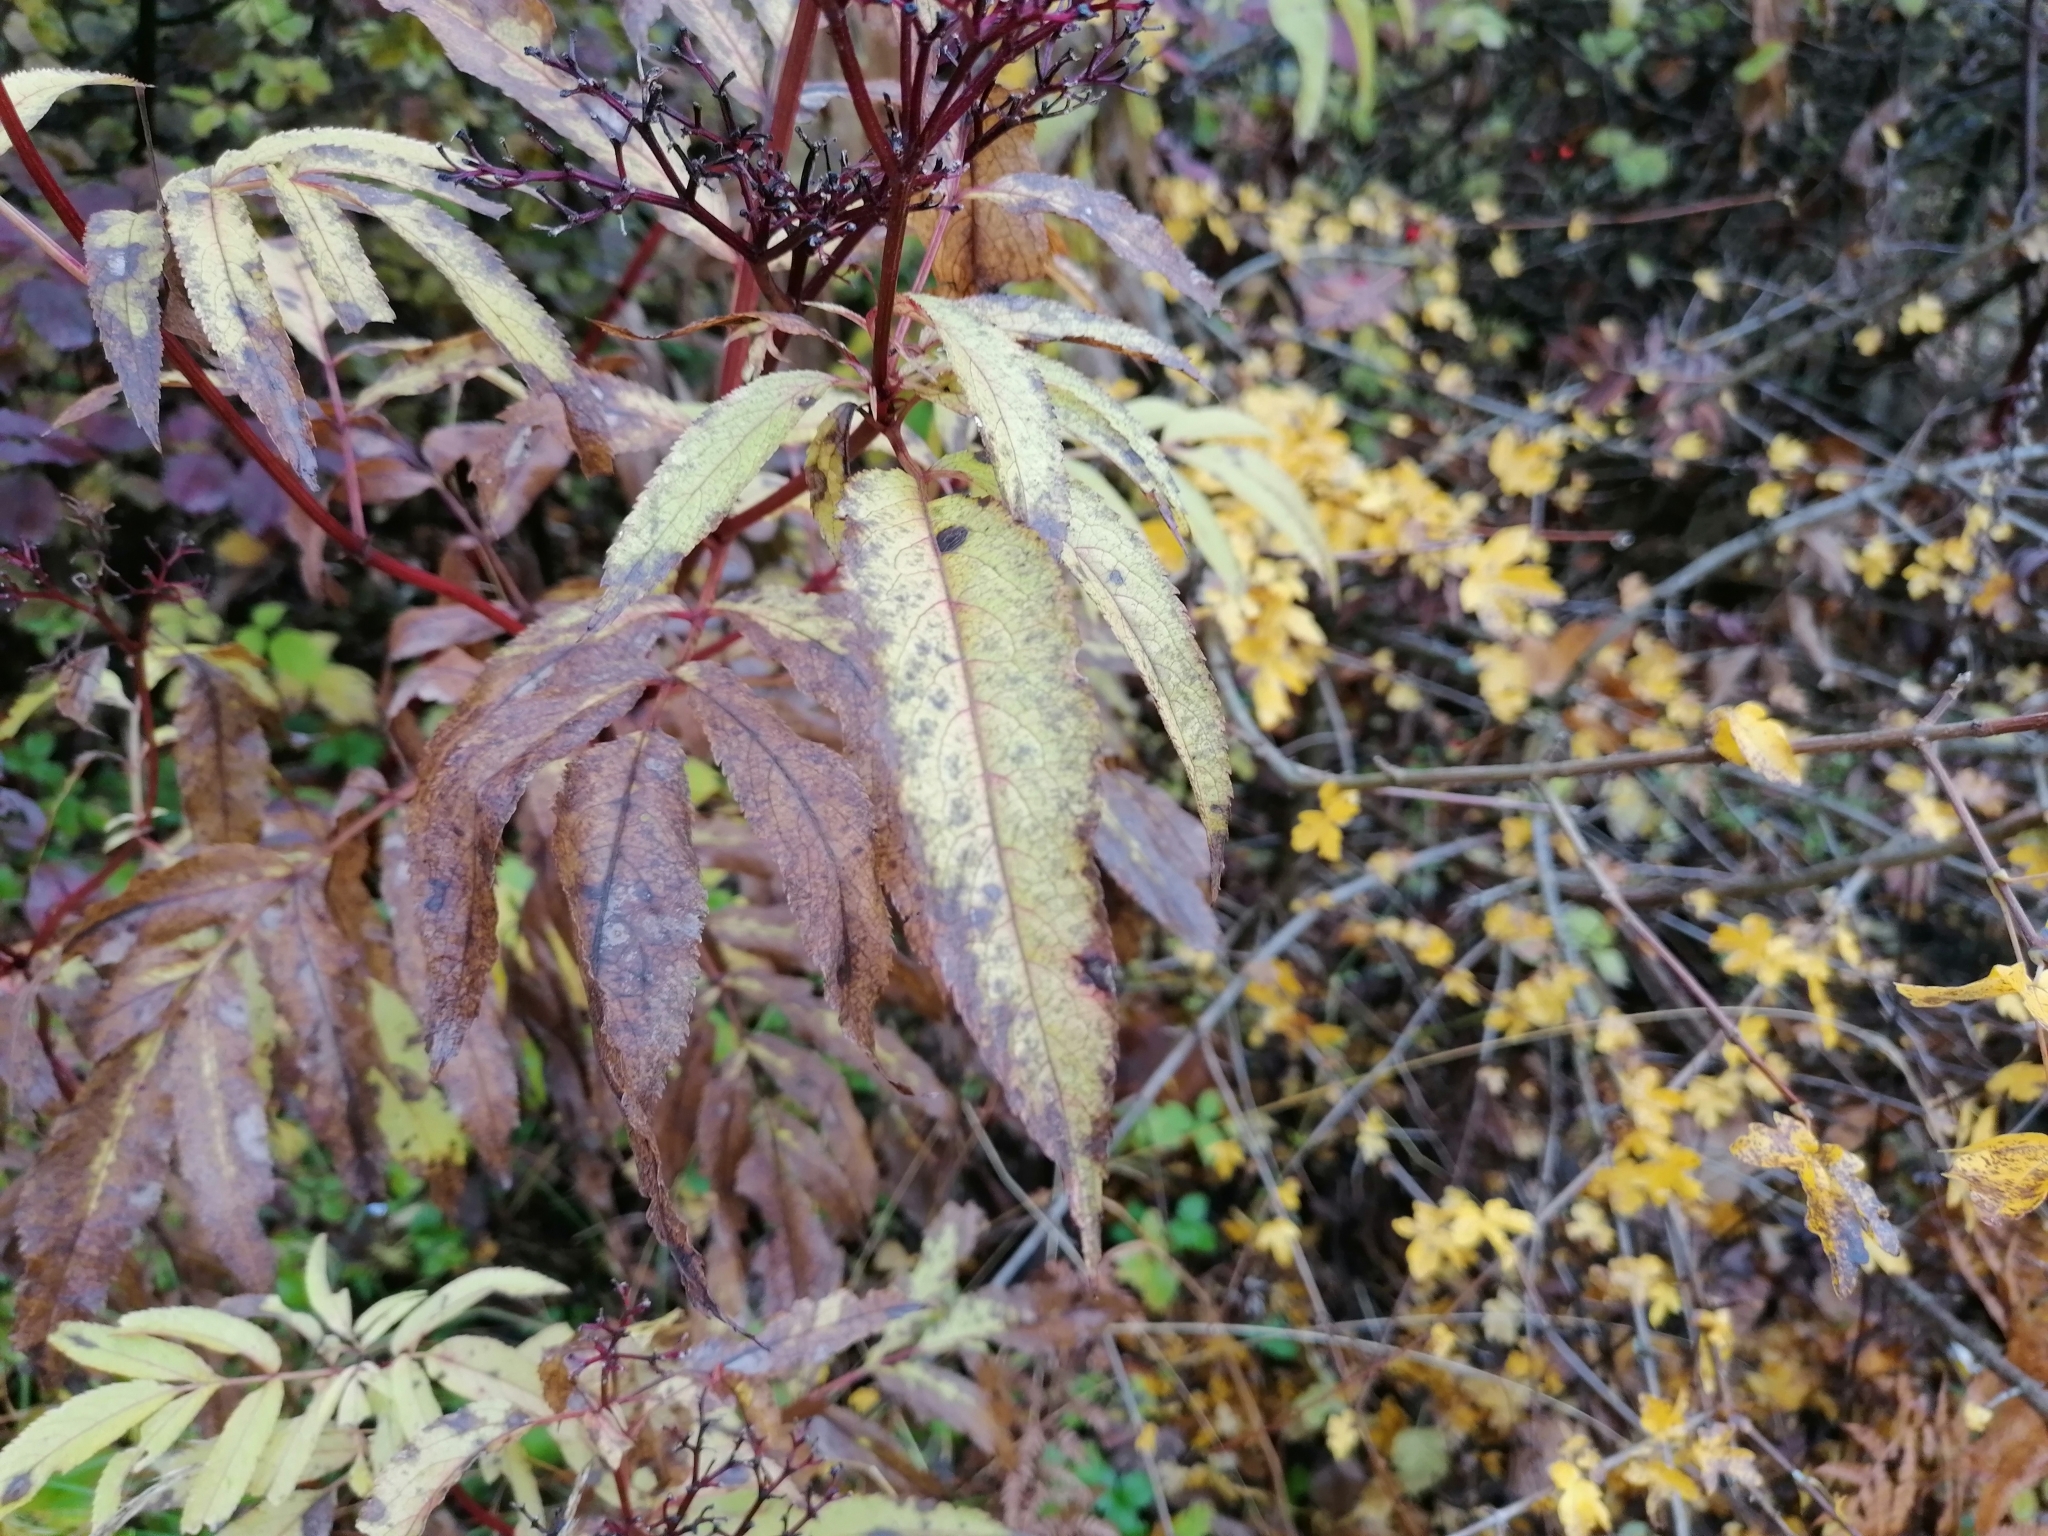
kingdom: Plantae
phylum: Tracheophyta
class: Magnoliopsida
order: Dipsacales
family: Viburnaceae
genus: Sambucus
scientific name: Sambucus ebulus
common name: Dwarf elder
